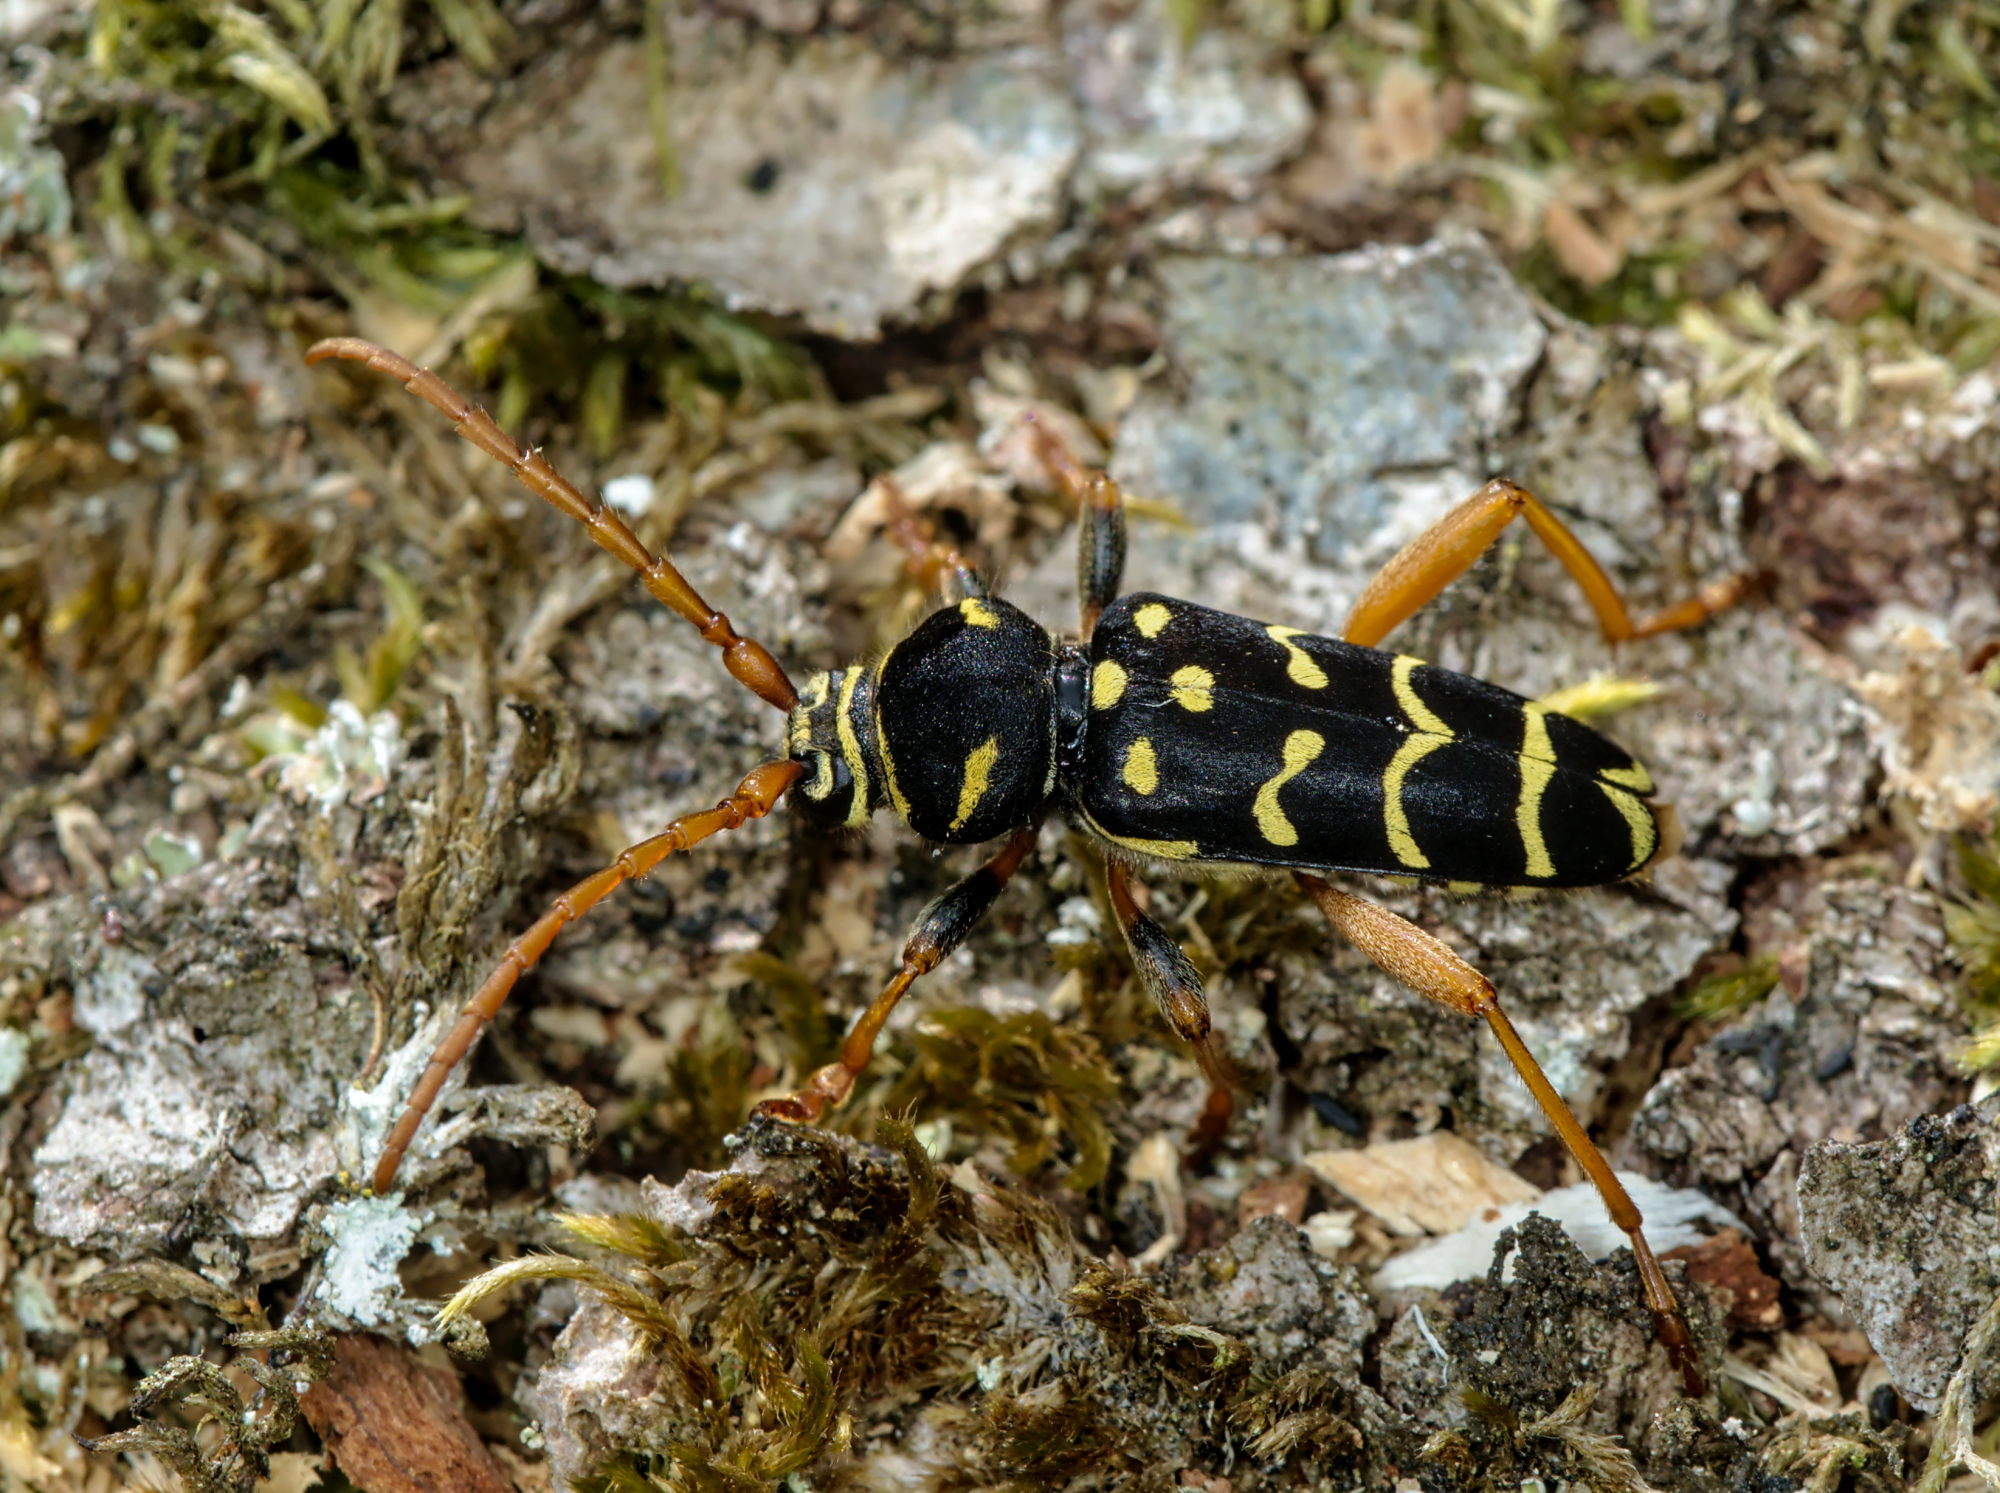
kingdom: Animalia
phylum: Arthropoda
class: Insecta
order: Coleoptera
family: Cerambycidae
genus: Plagionotus
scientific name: Plagionotus arcuatus
